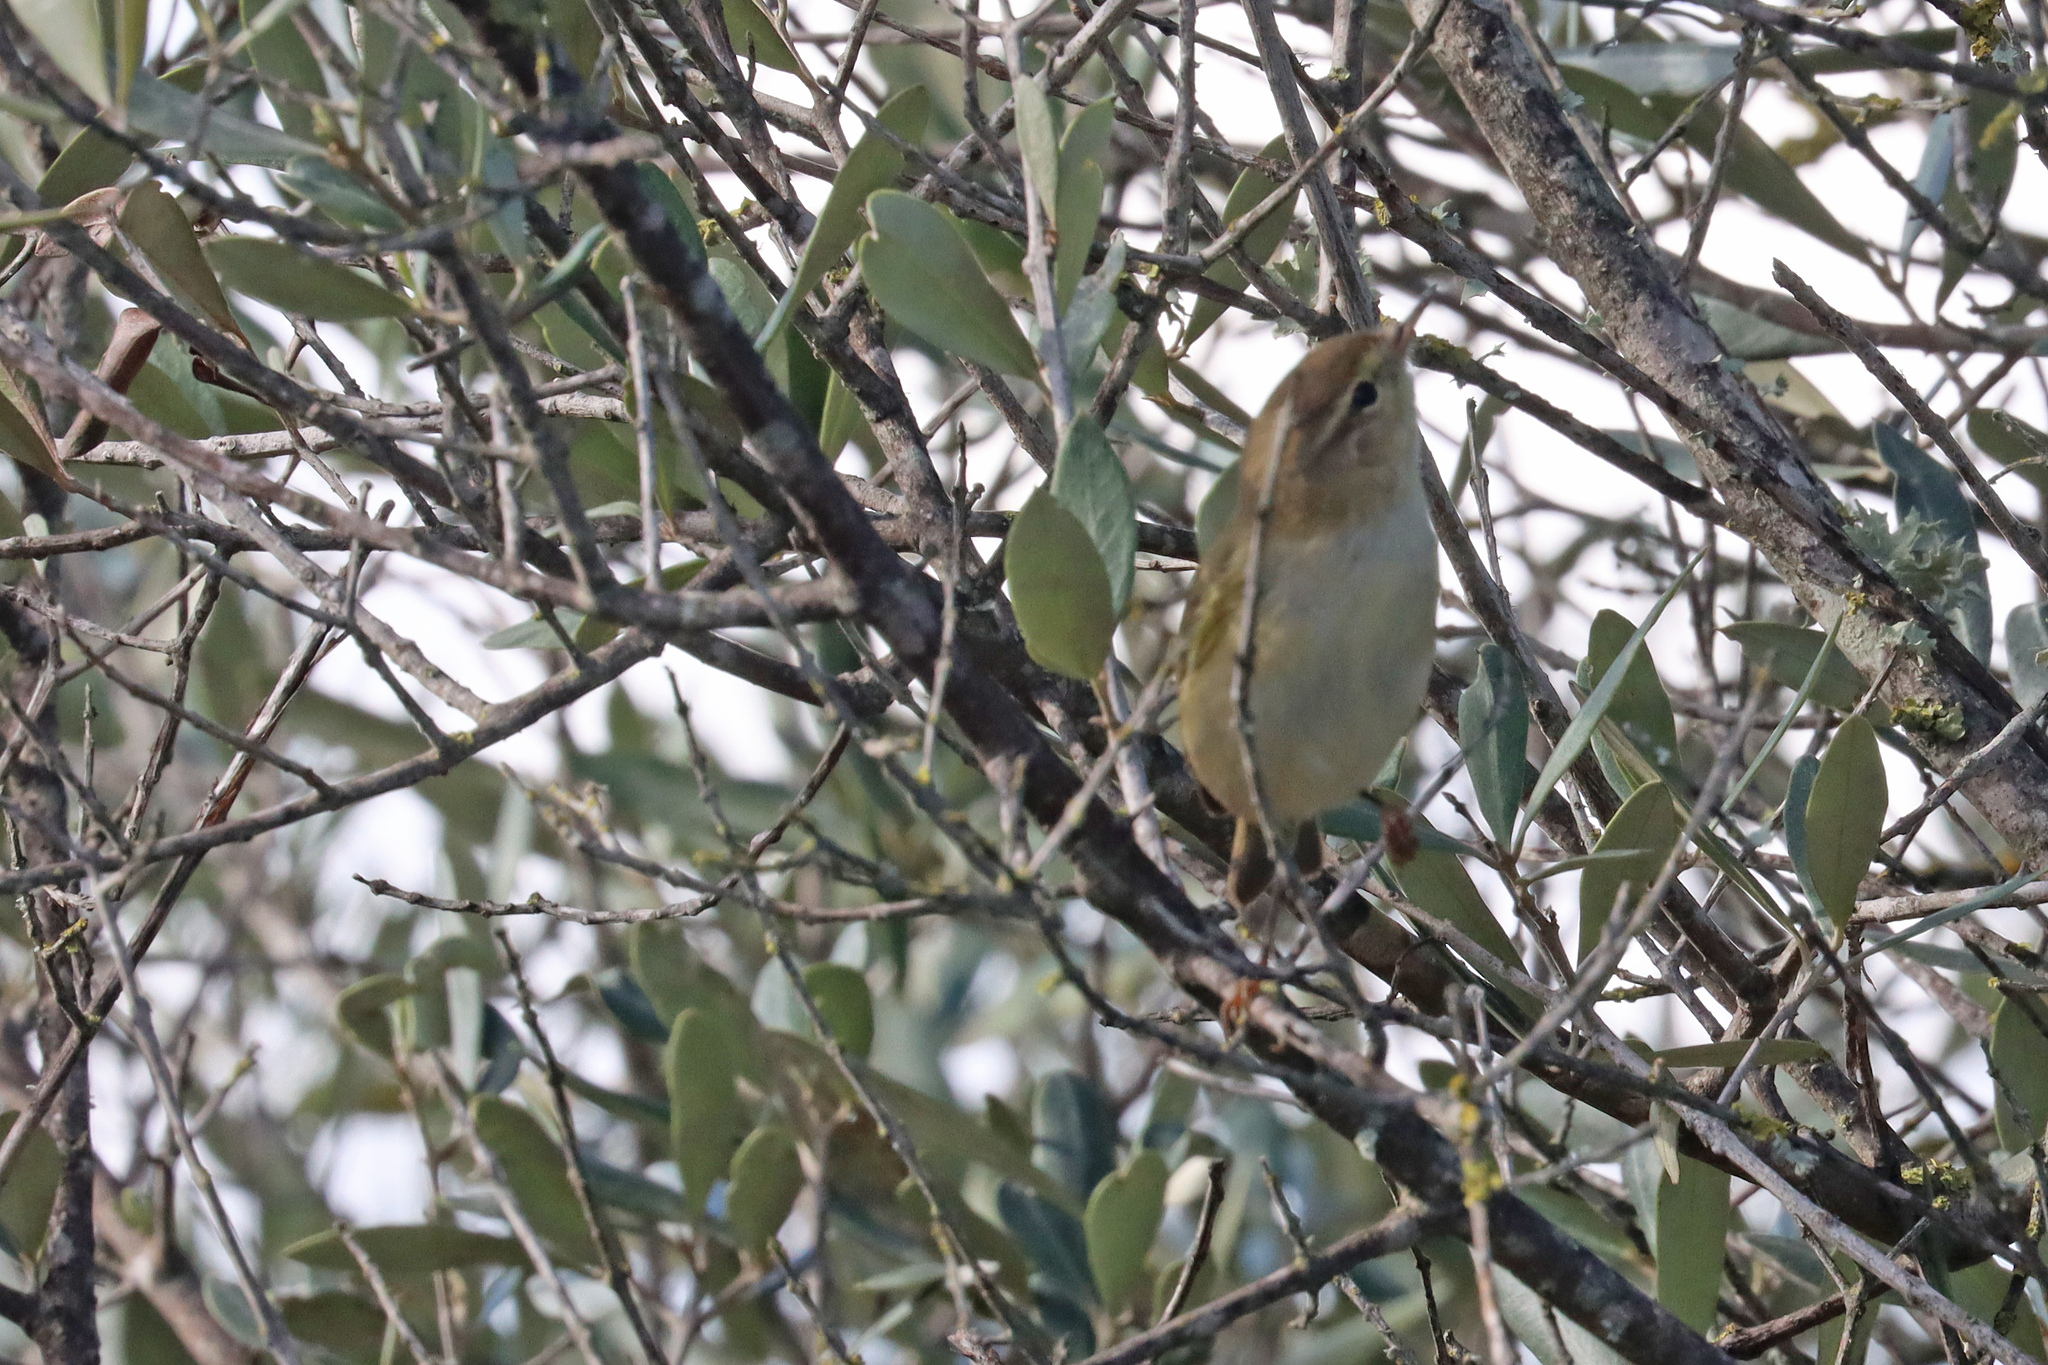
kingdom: Animalia
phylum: Chordata
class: Aves
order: Passeriformes
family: Phylloscopidae
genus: Phylloscopus
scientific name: Phylloscopus collybita
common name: Common chiffchaff
